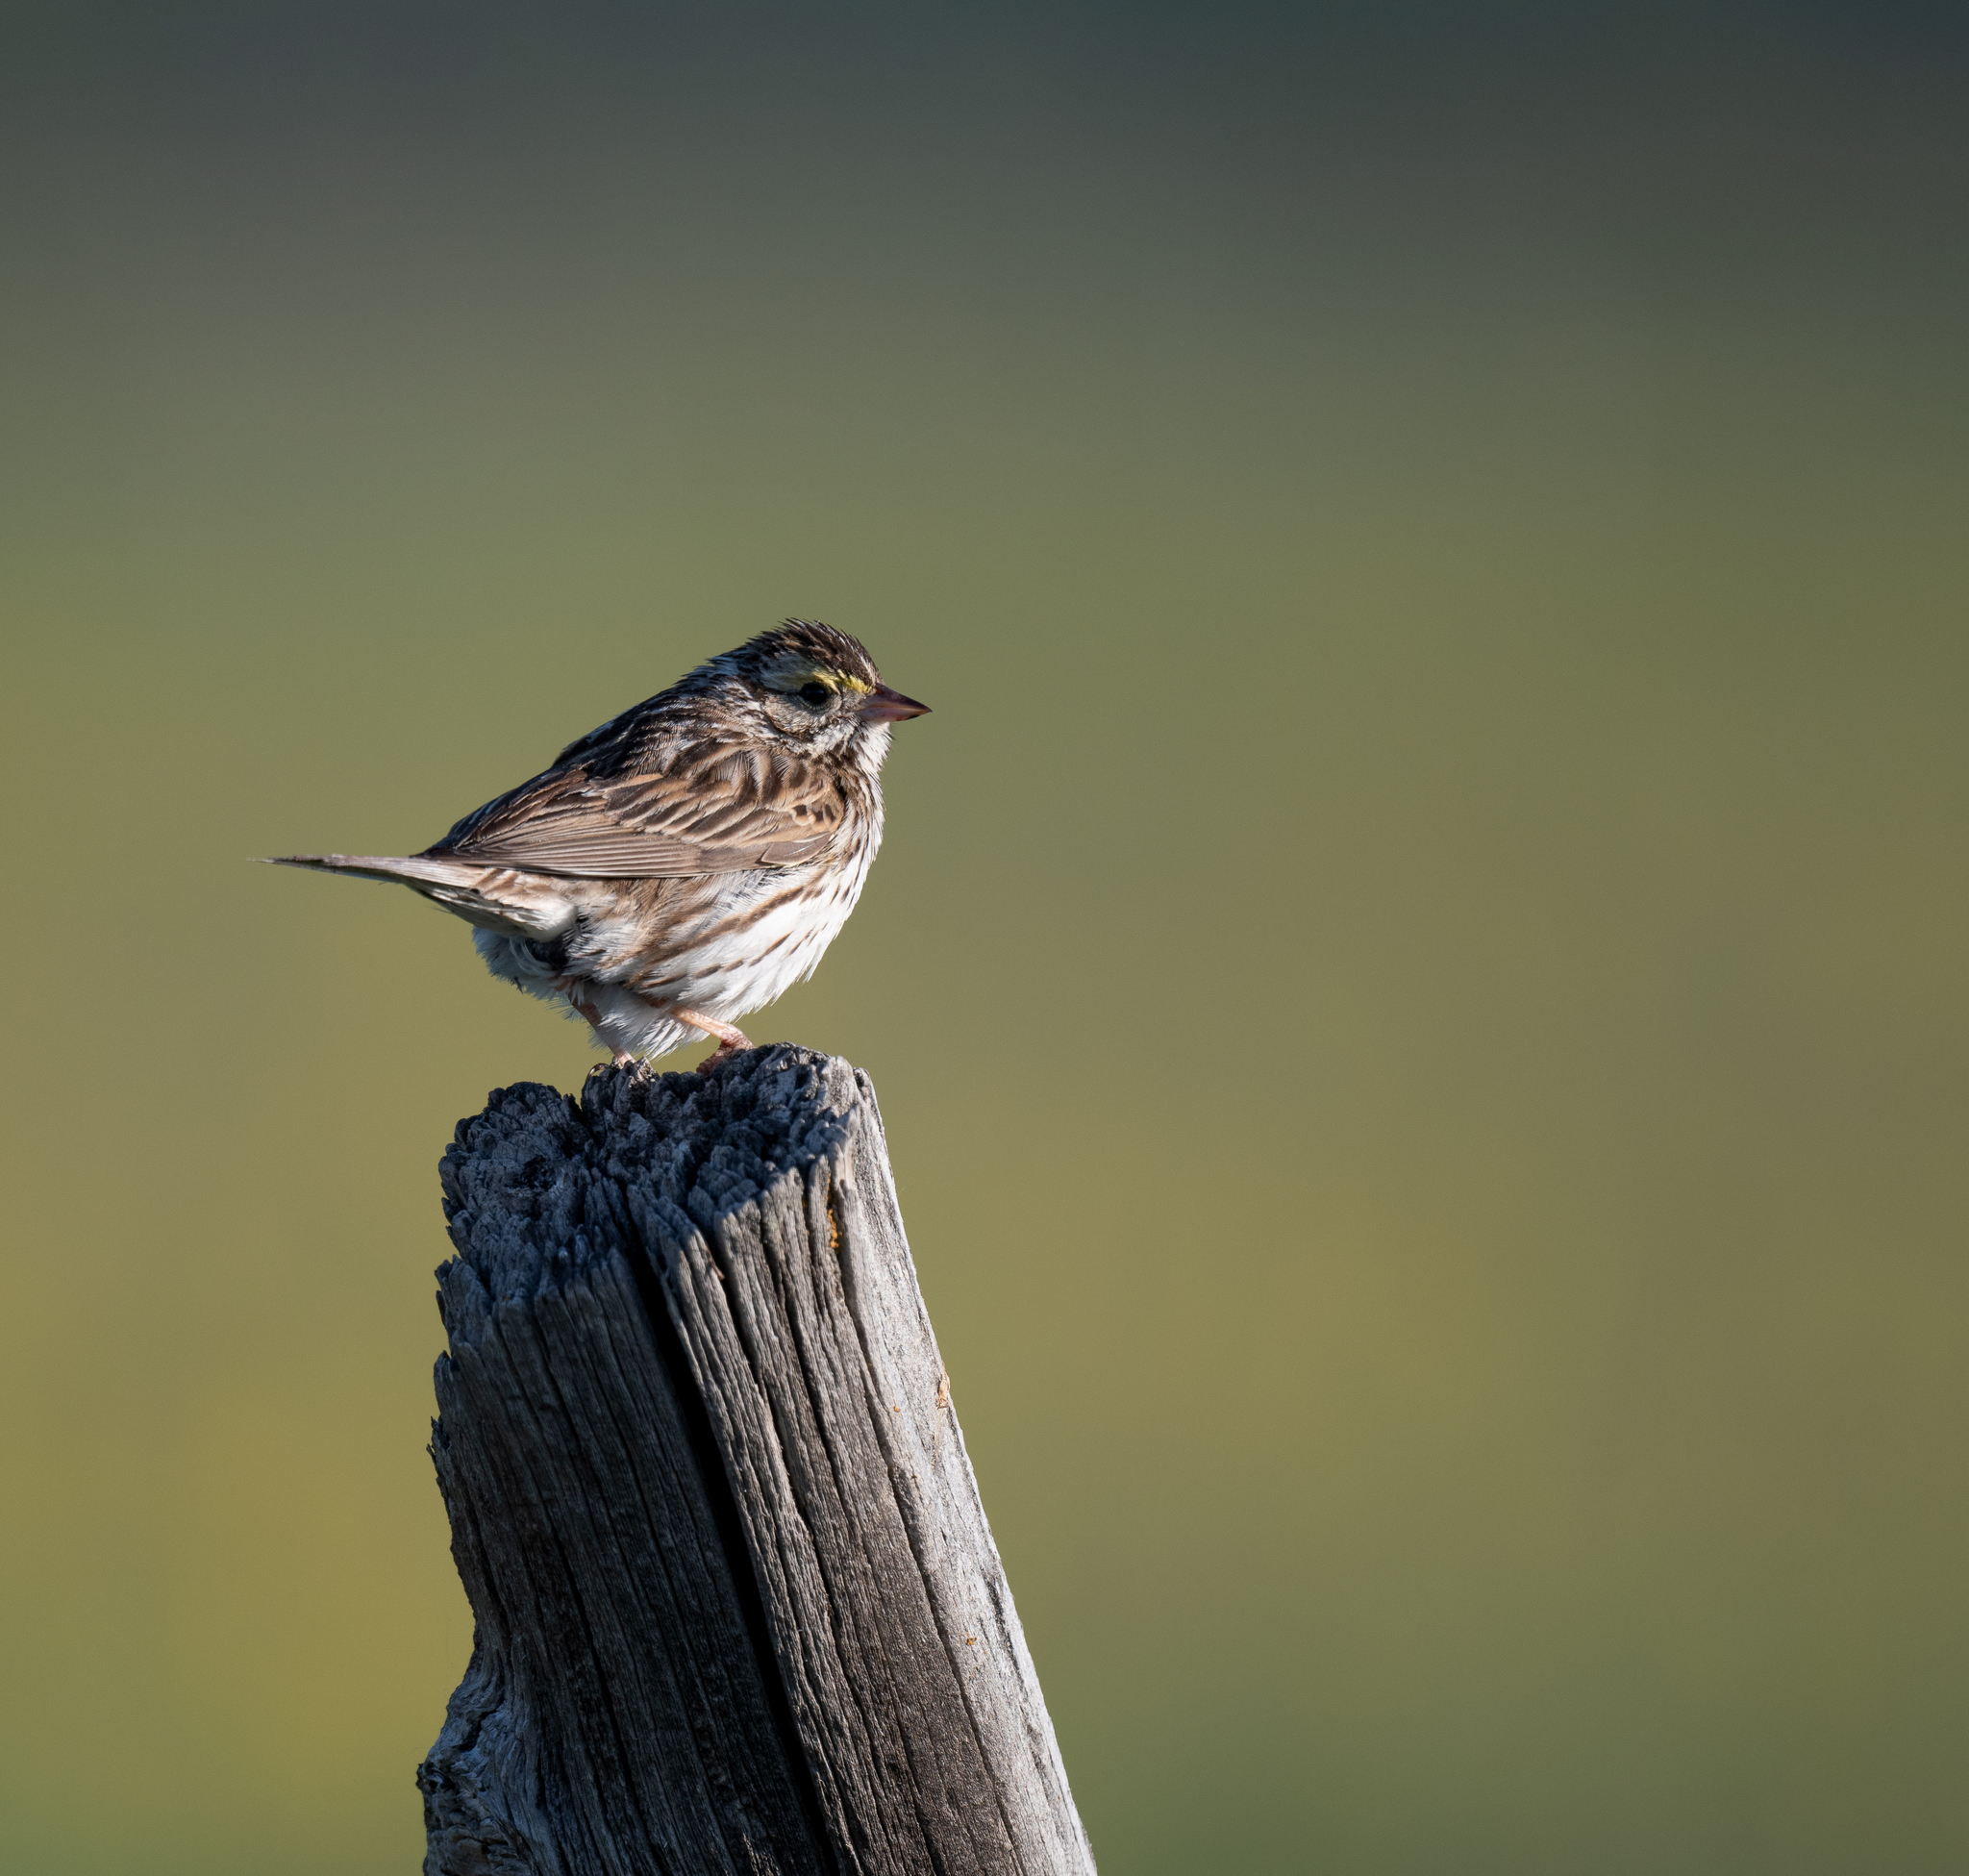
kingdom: Animalia
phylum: Chordata
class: Aves
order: Passeriformes
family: Passerellidae
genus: Passerculus
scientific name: Passerculus sandwichensis
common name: Savannah sparrow
